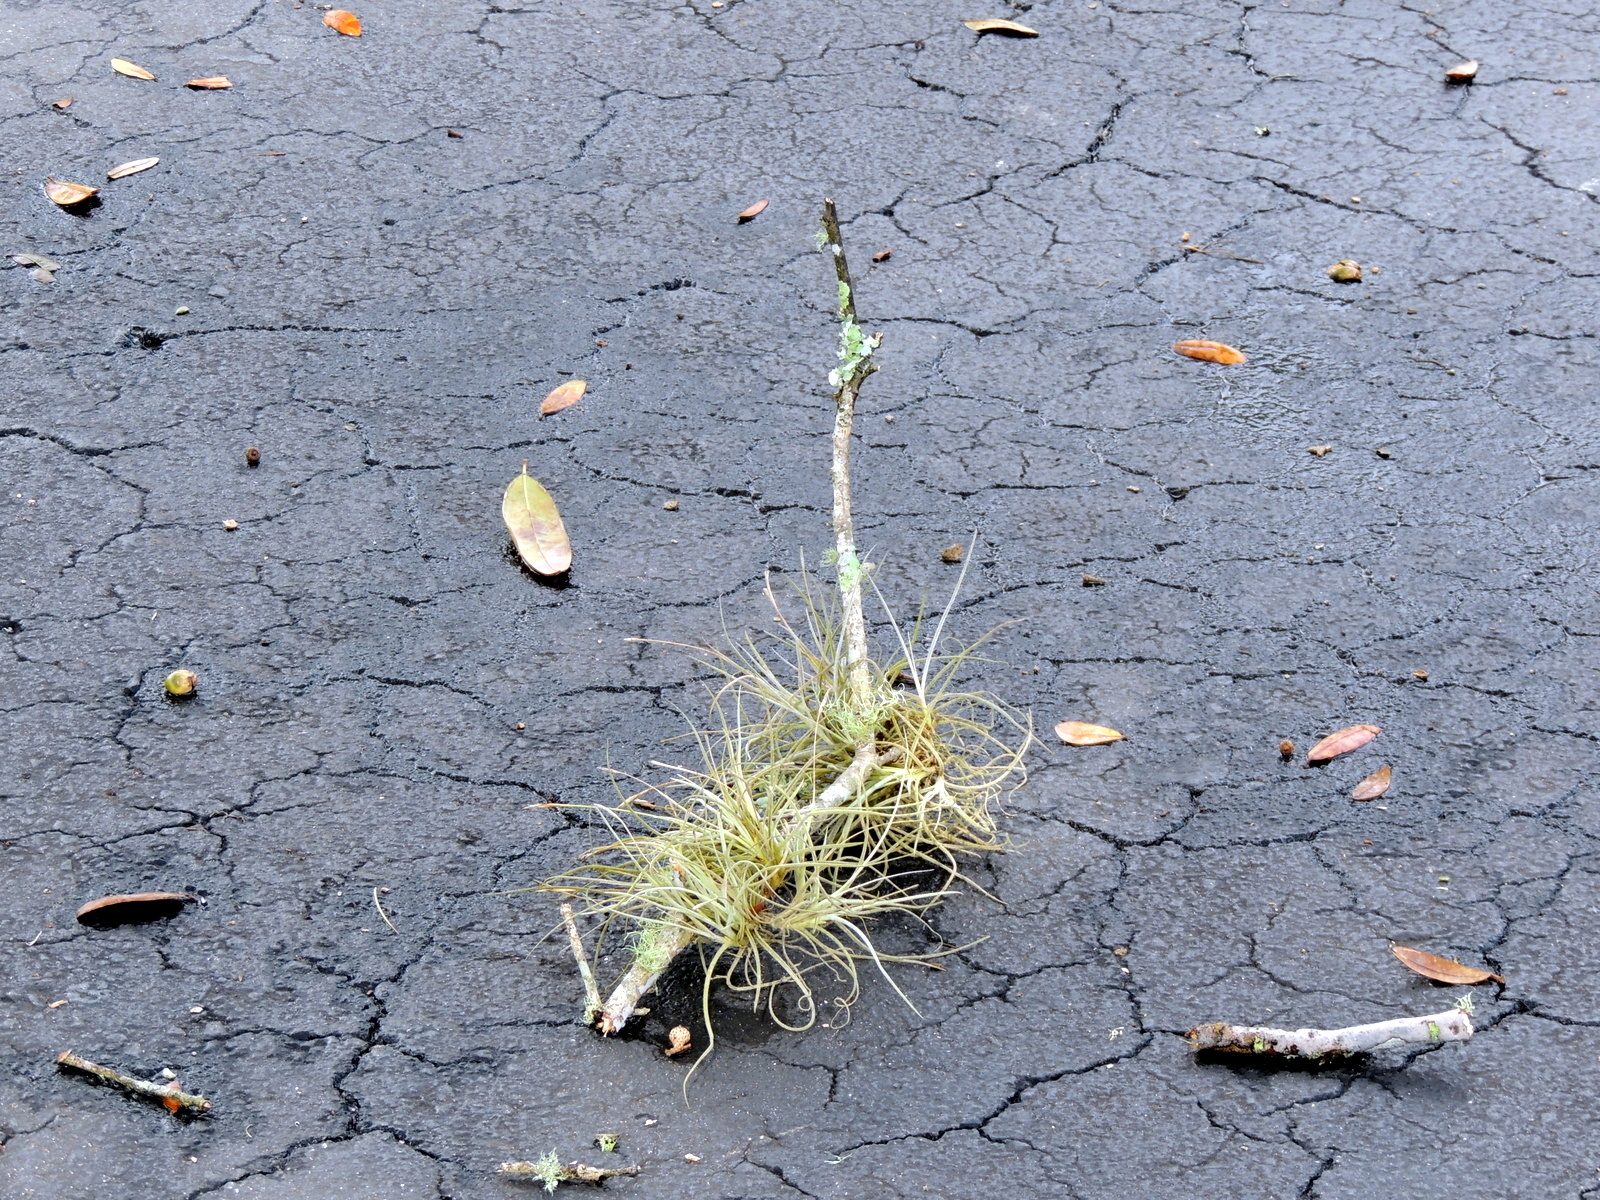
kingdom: Plantae
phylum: Tracheophyta
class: Liliopsida
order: Poales
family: Bromeliaceae
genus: Tillandsia
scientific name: Tillandsia recurvata
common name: Small ballmoss
